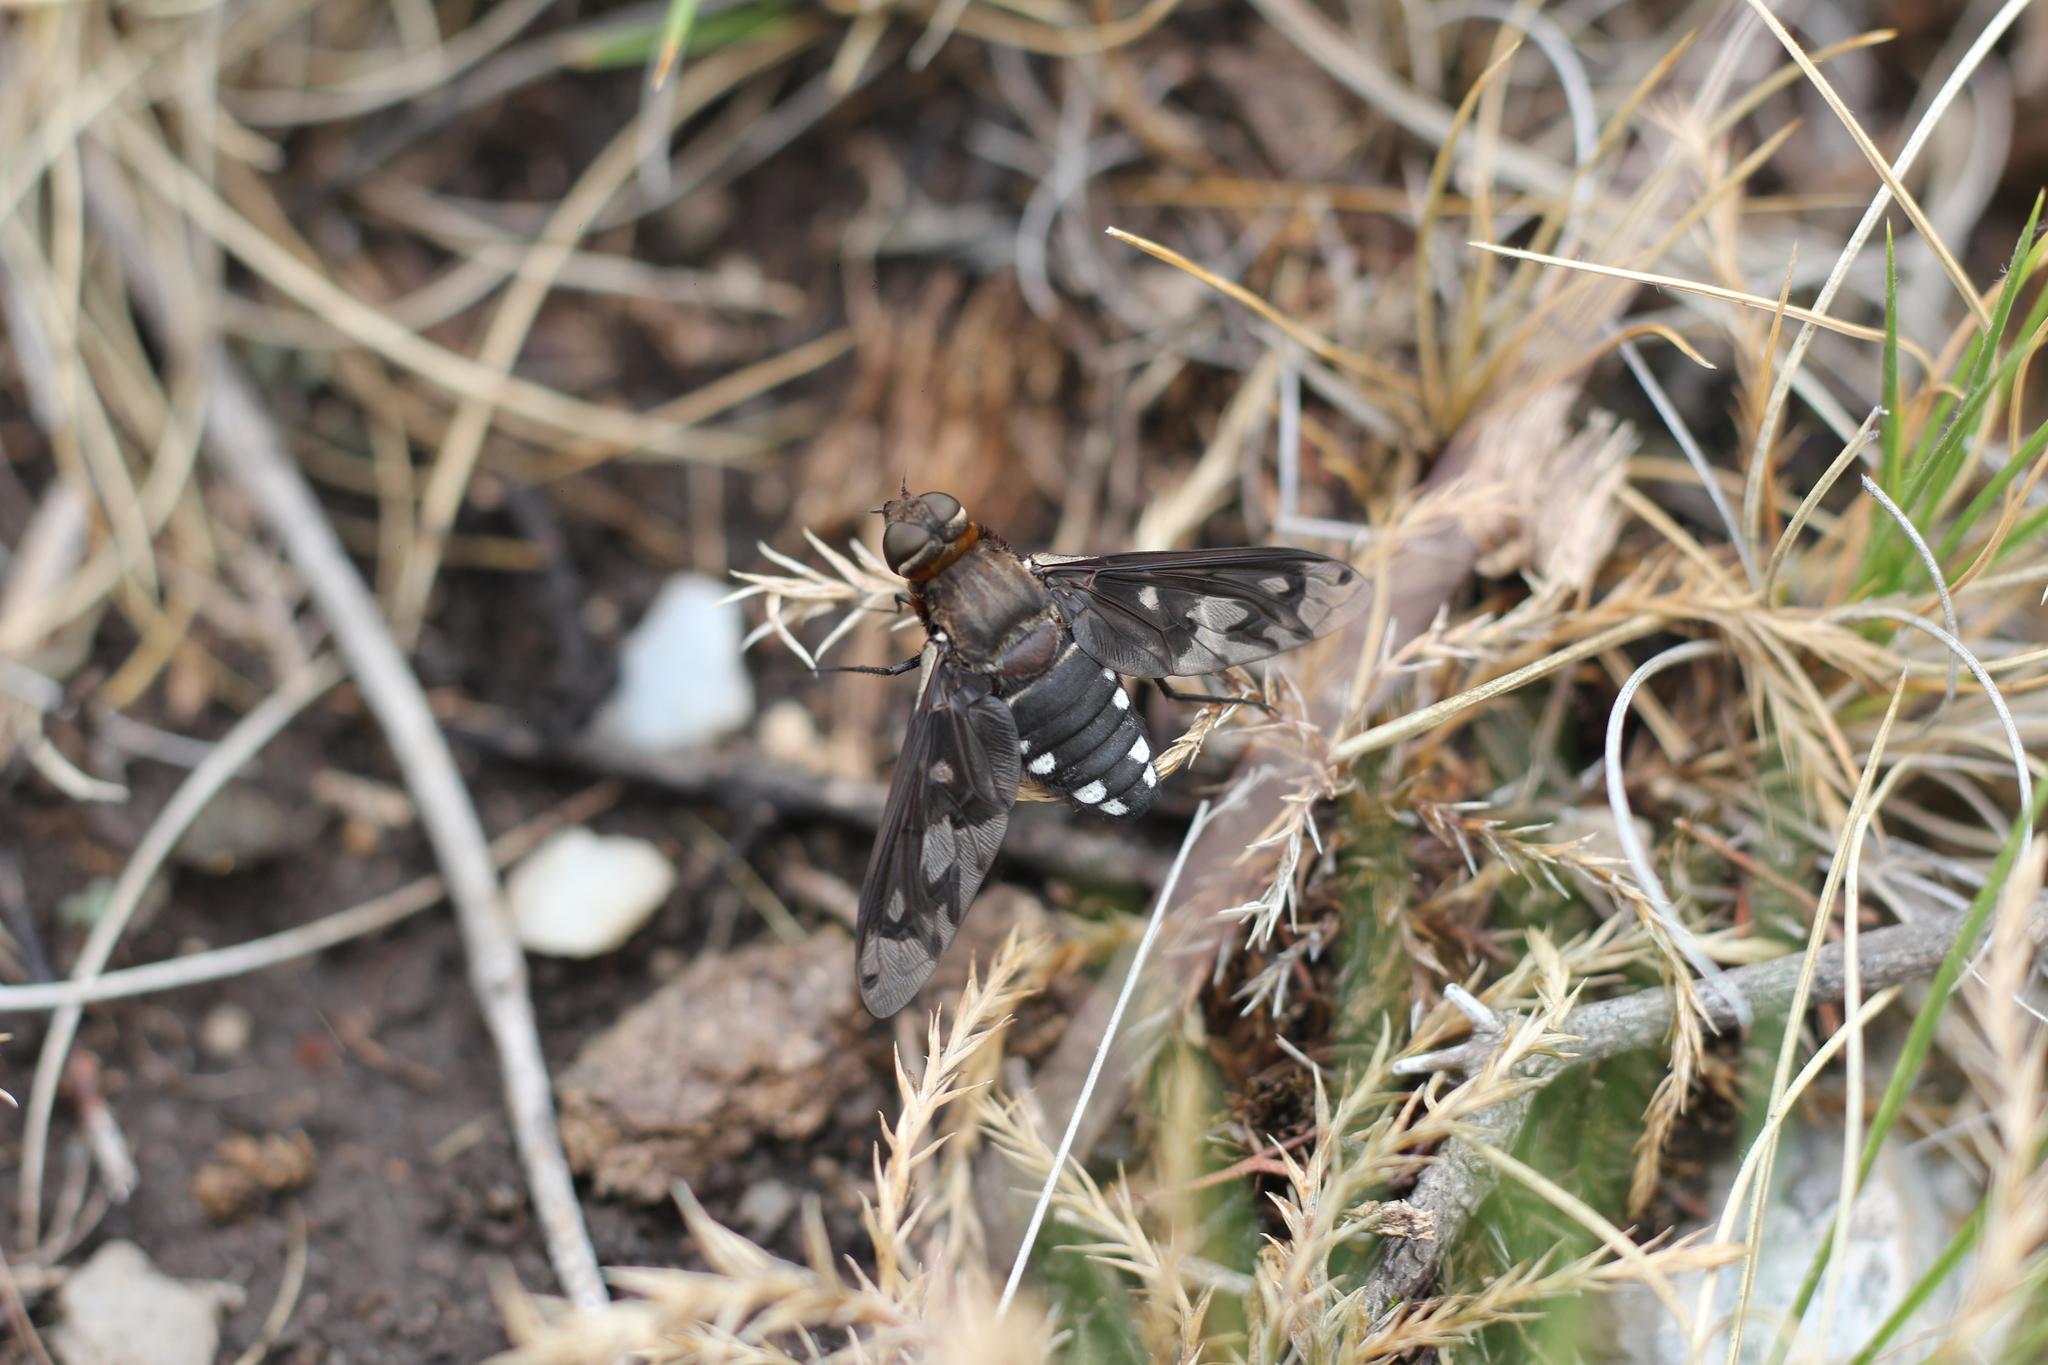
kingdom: Animalia
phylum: Arthropoda
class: Insecta
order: Diptera
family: Bombyliidae
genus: Nyia
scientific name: Nyia klugii
